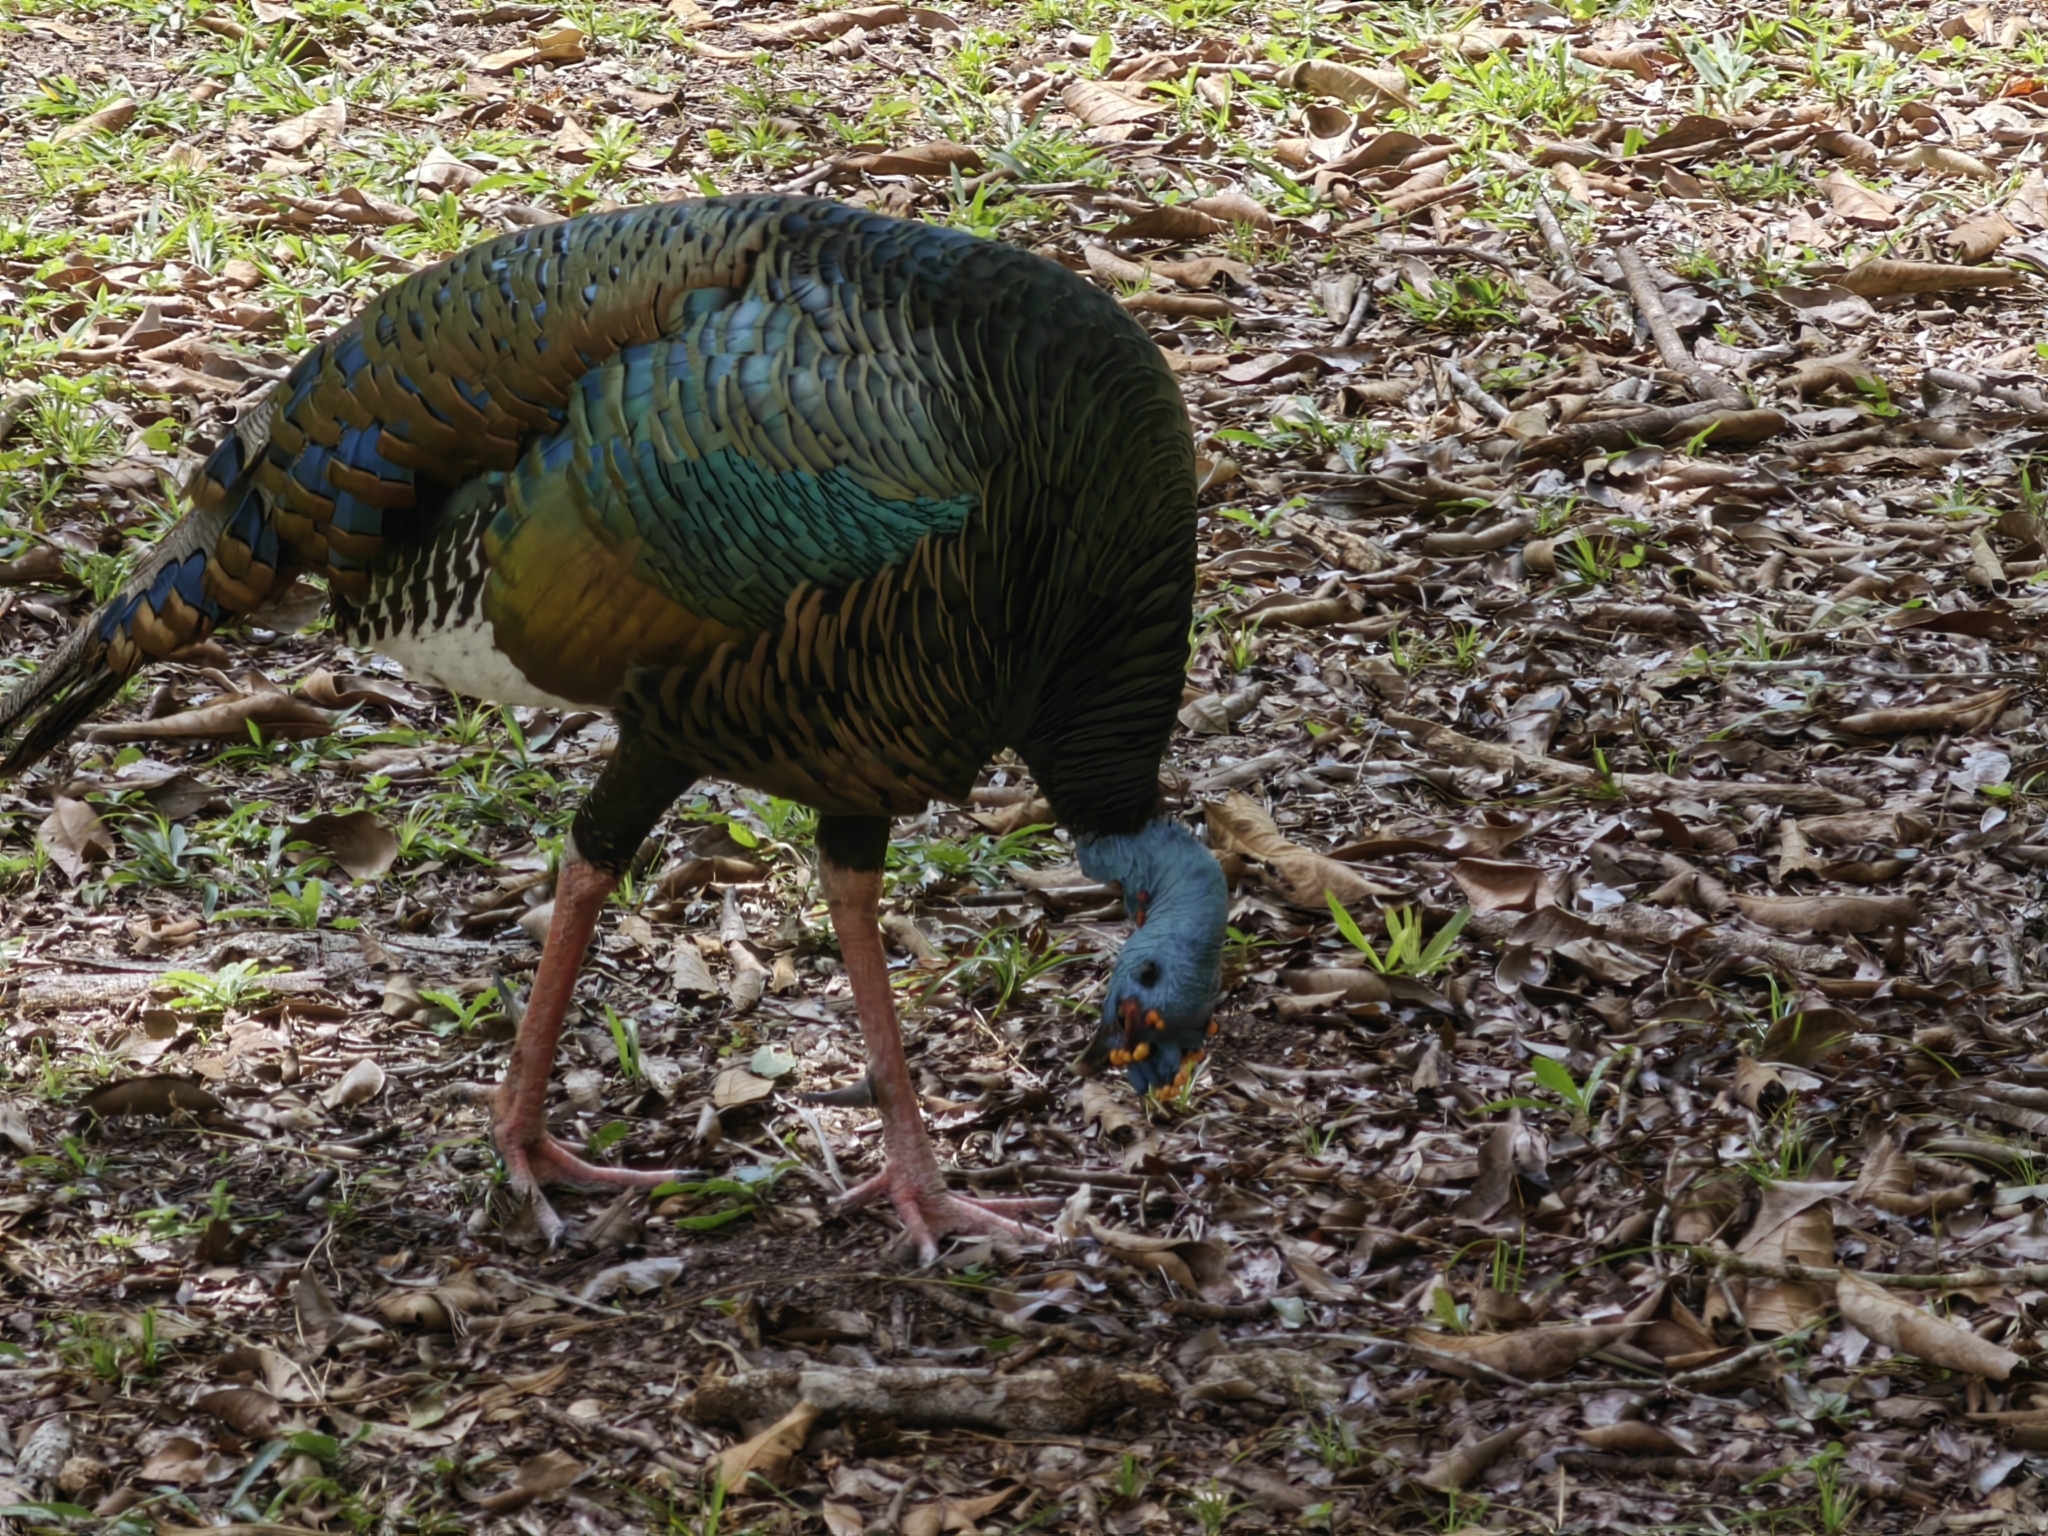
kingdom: Animalia
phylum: Chordata
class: Aves
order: Galliformes
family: Phasianidae
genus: Meleagris
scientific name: Meleagris ocellata
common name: Ocellated turkey
